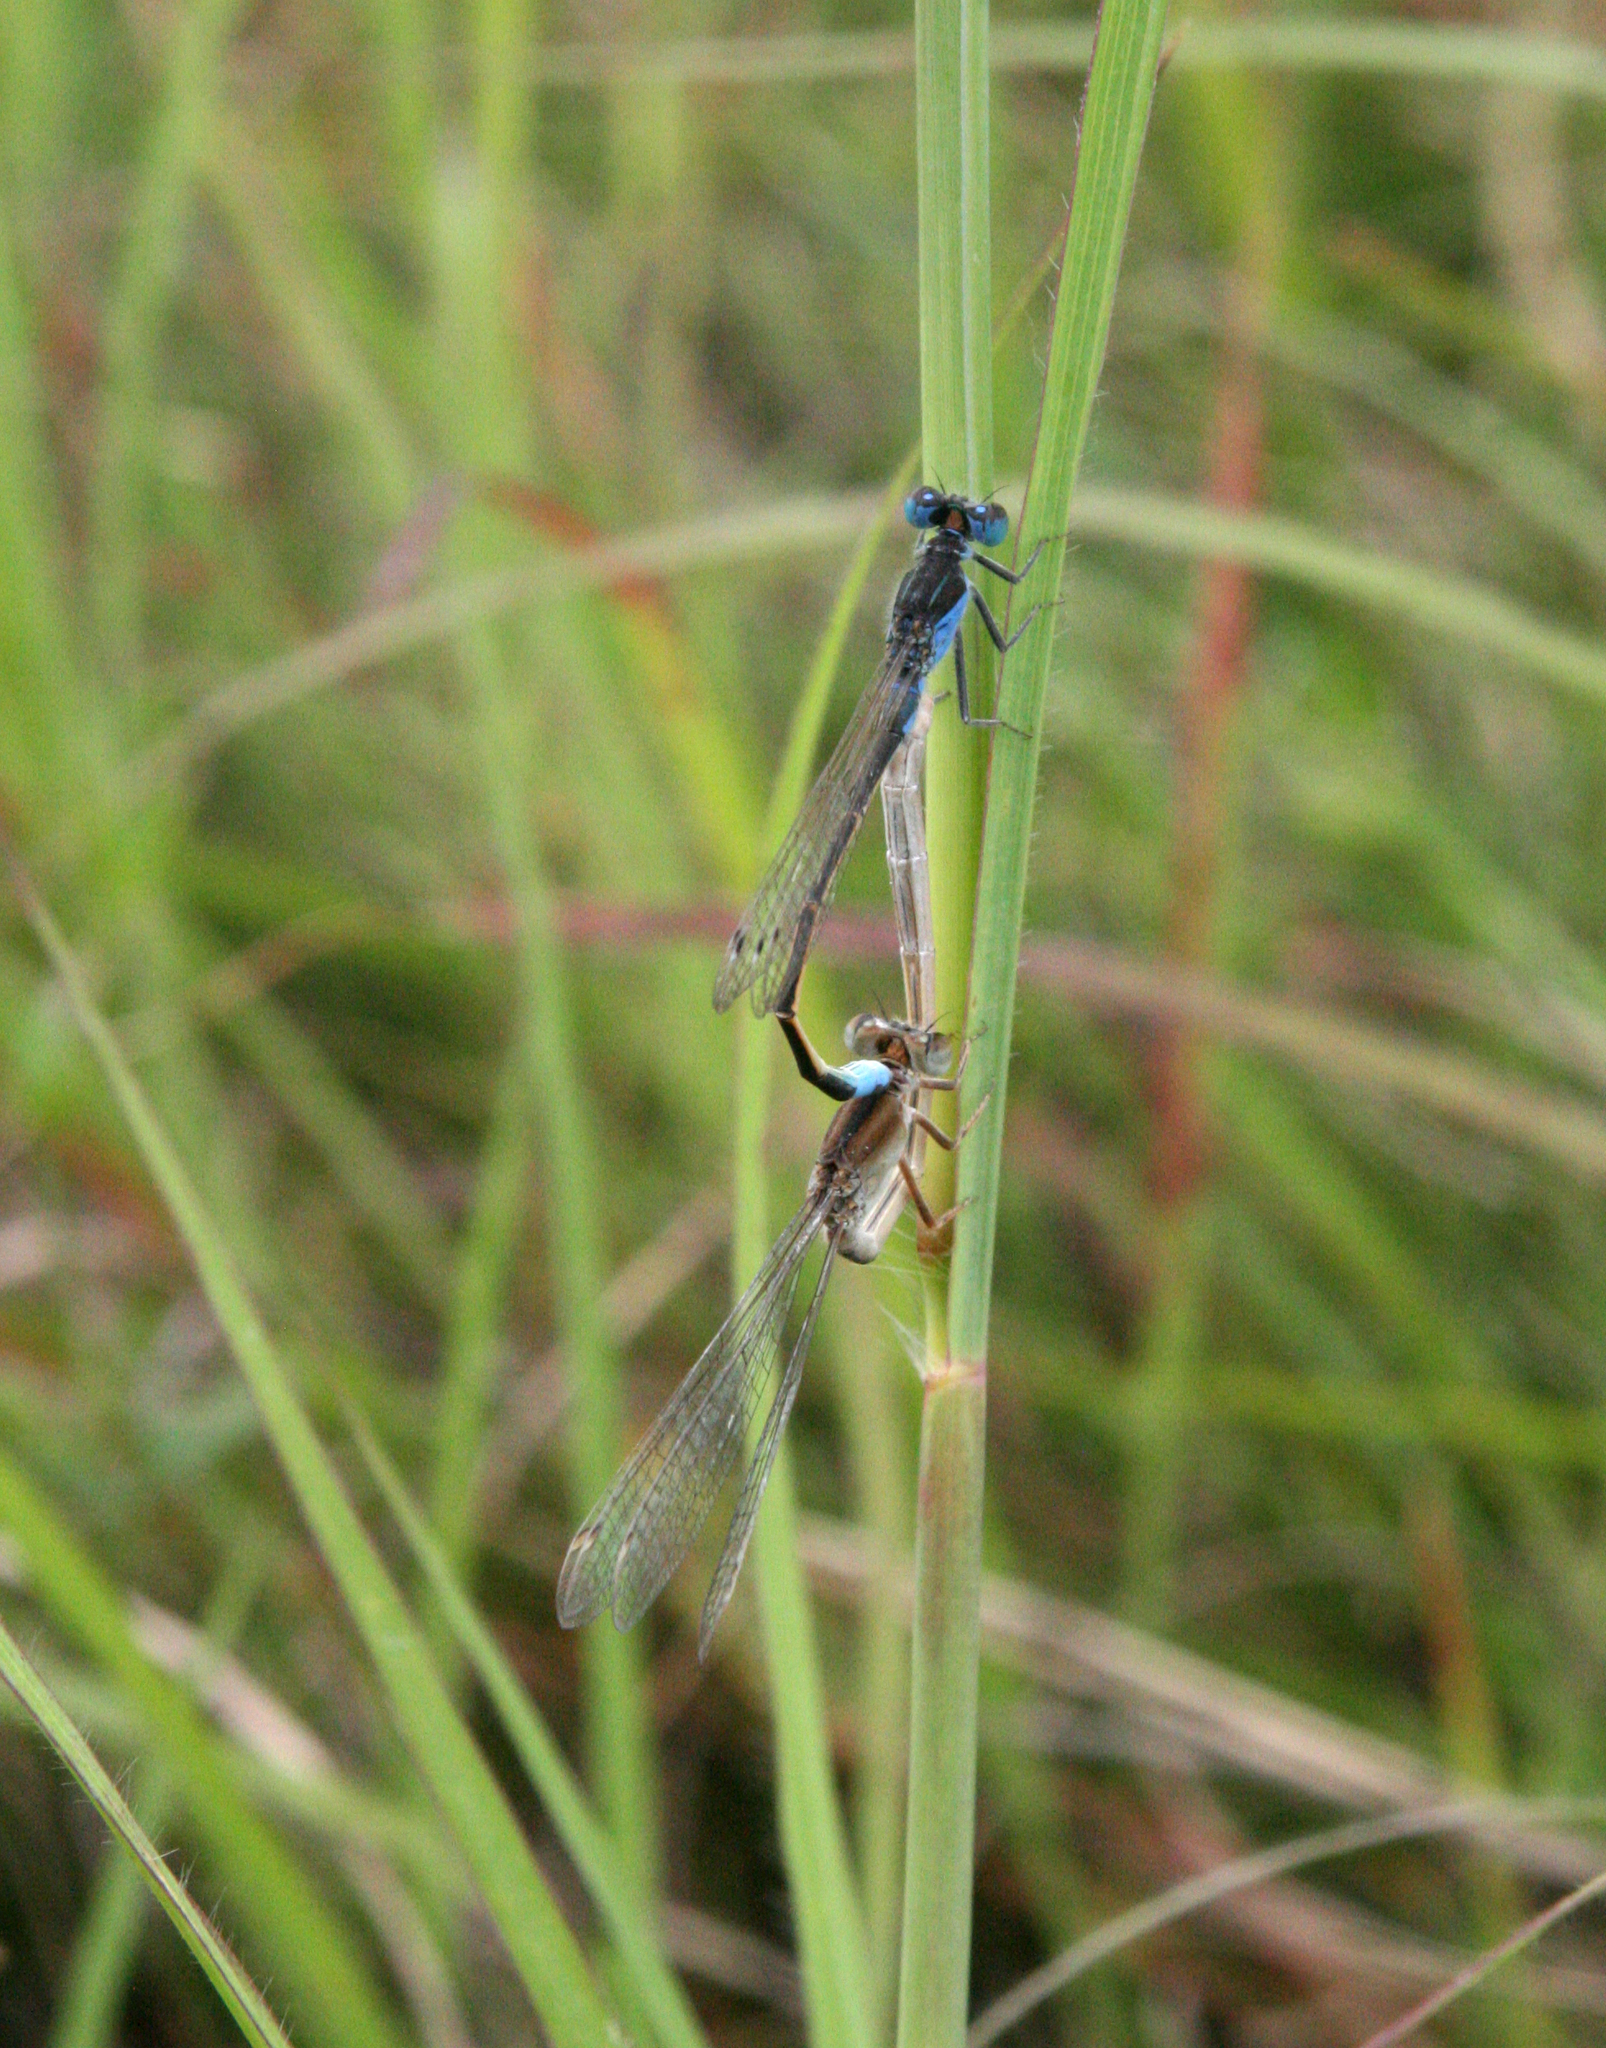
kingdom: Animalia
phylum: Arthropoda
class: Insecta
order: Odonata
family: Coenagrionidae
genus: Ischnura
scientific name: Ischnura fountaineae
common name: Oasis bluetail
